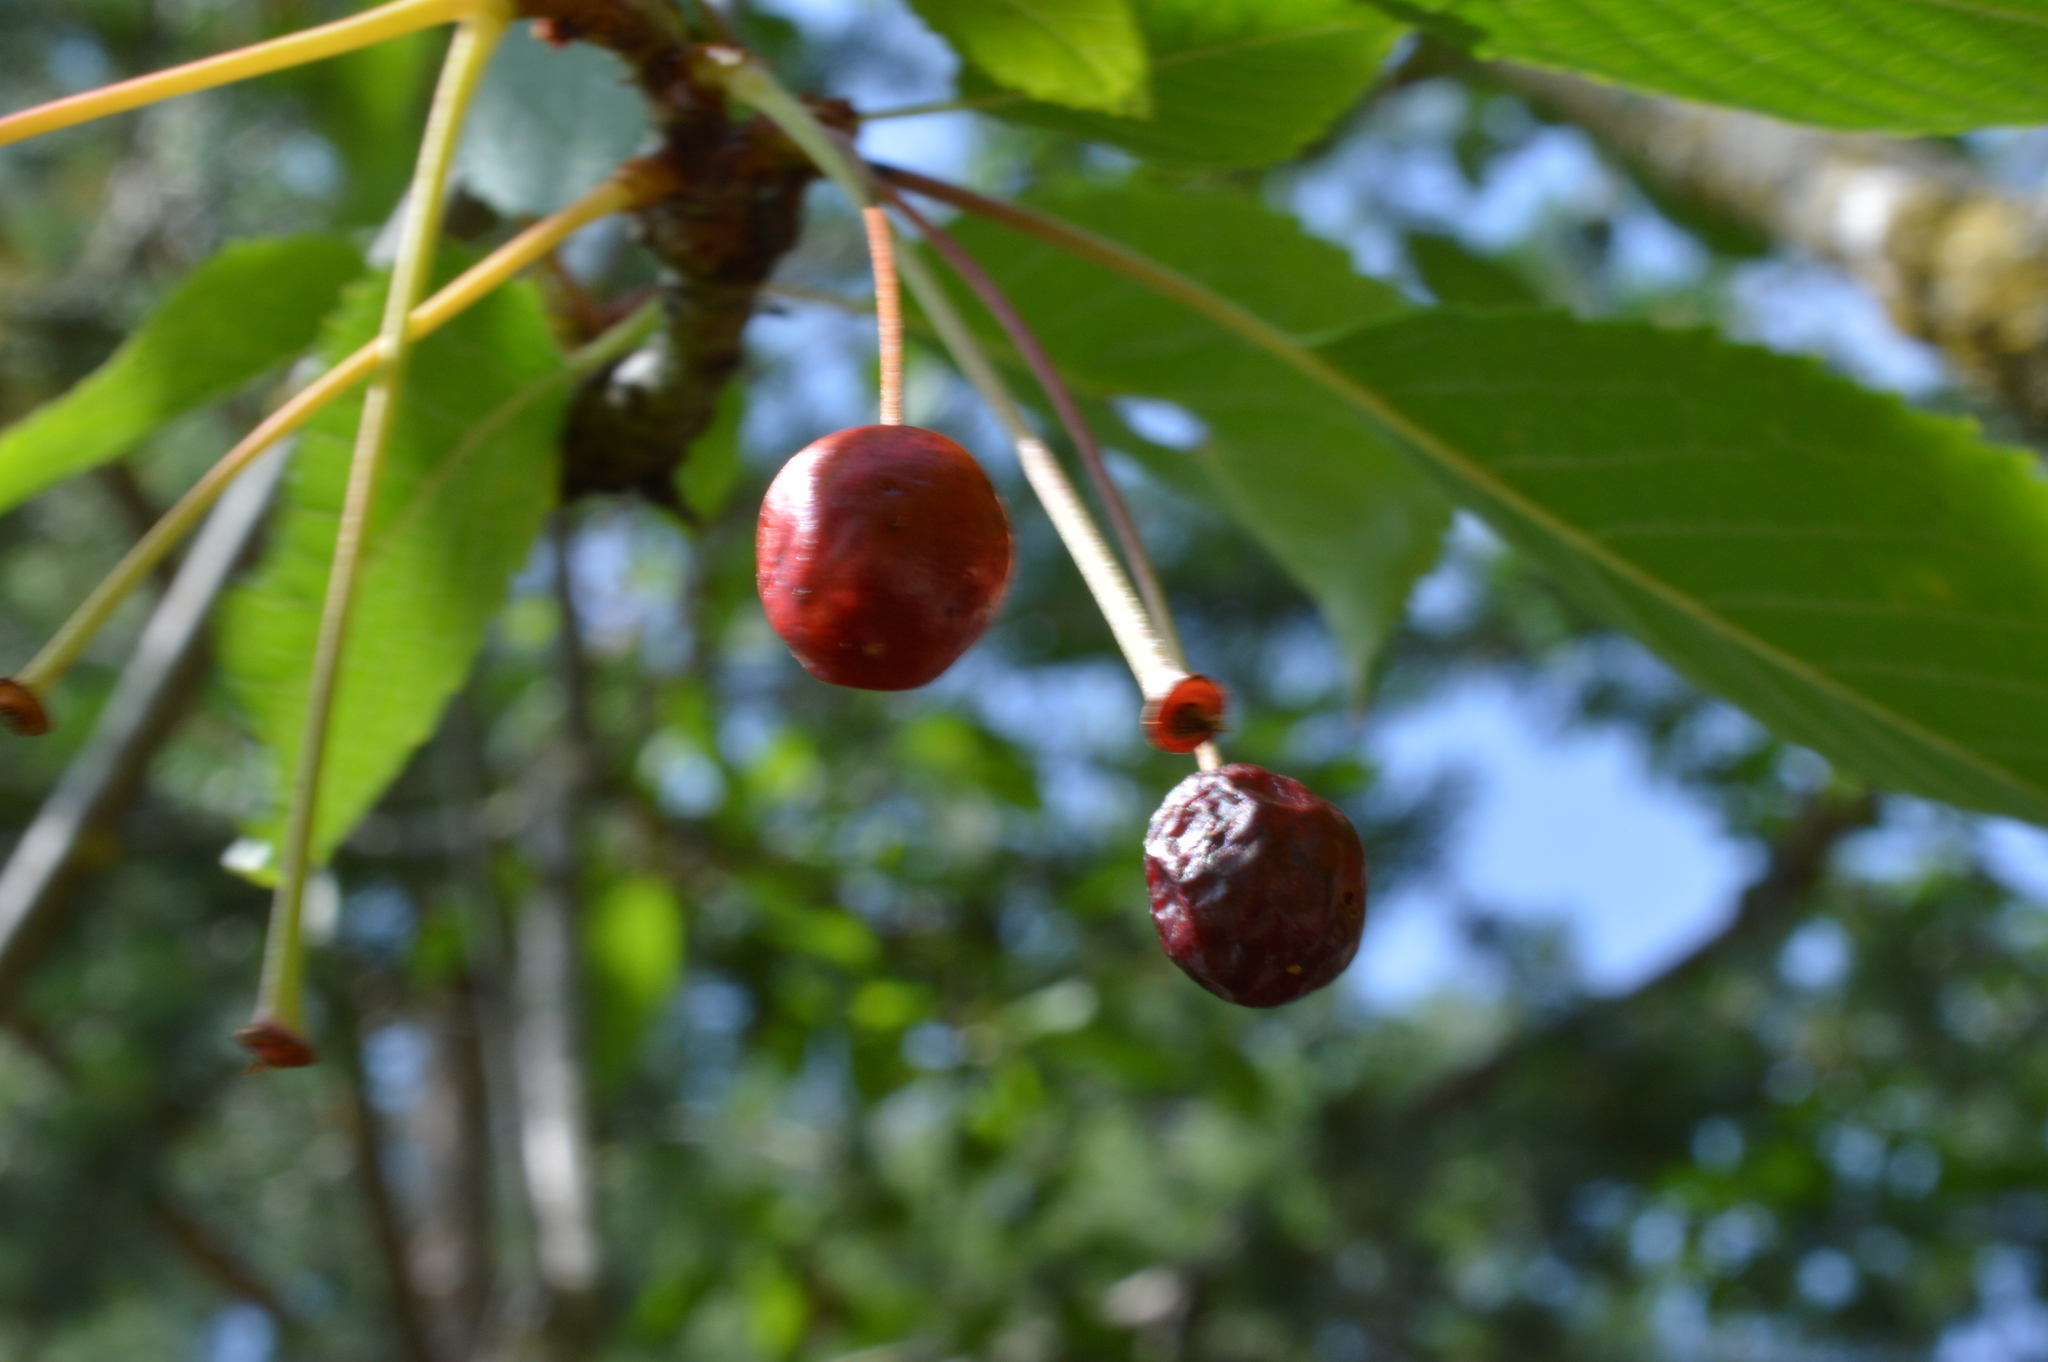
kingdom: Plantae
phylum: Tracheophyta
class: Magnoliopsida
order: Rosales
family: Rosaceae
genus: Prunus
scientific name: Prunus avium
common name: Sweet cherry
